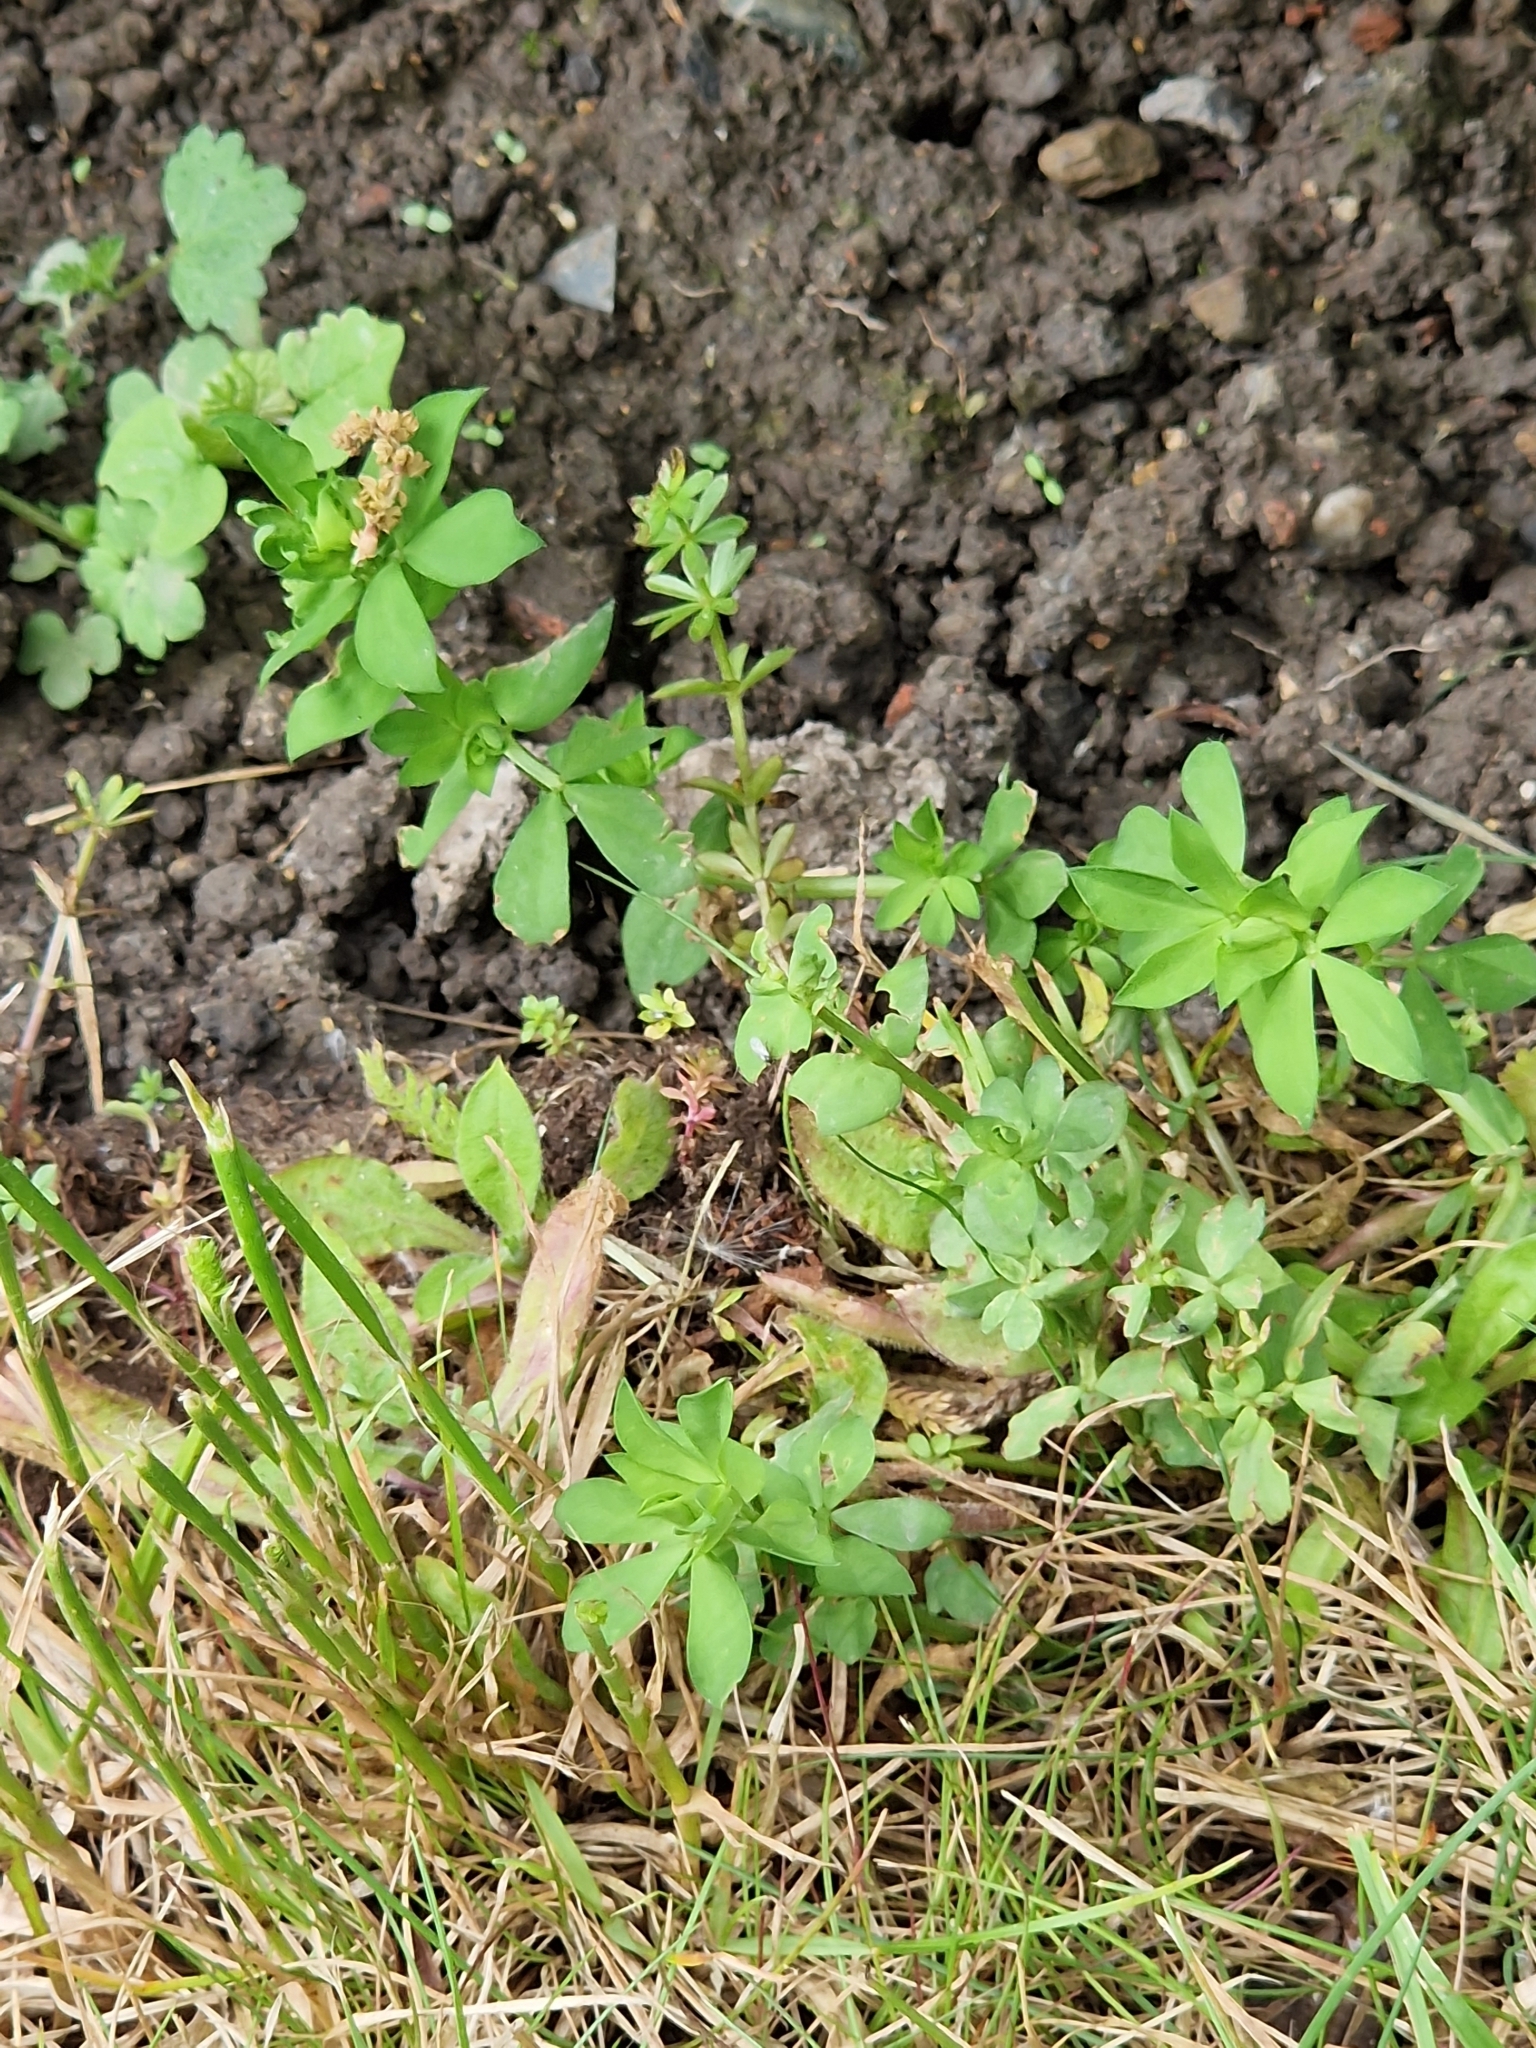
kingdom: Plantae
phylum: Tracheophyta
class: Magnoliopsida
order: Fabales
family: Fabaceae
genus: Lotus
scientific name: Lotus corniculatus
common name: Common bird's-foot-trefoil
